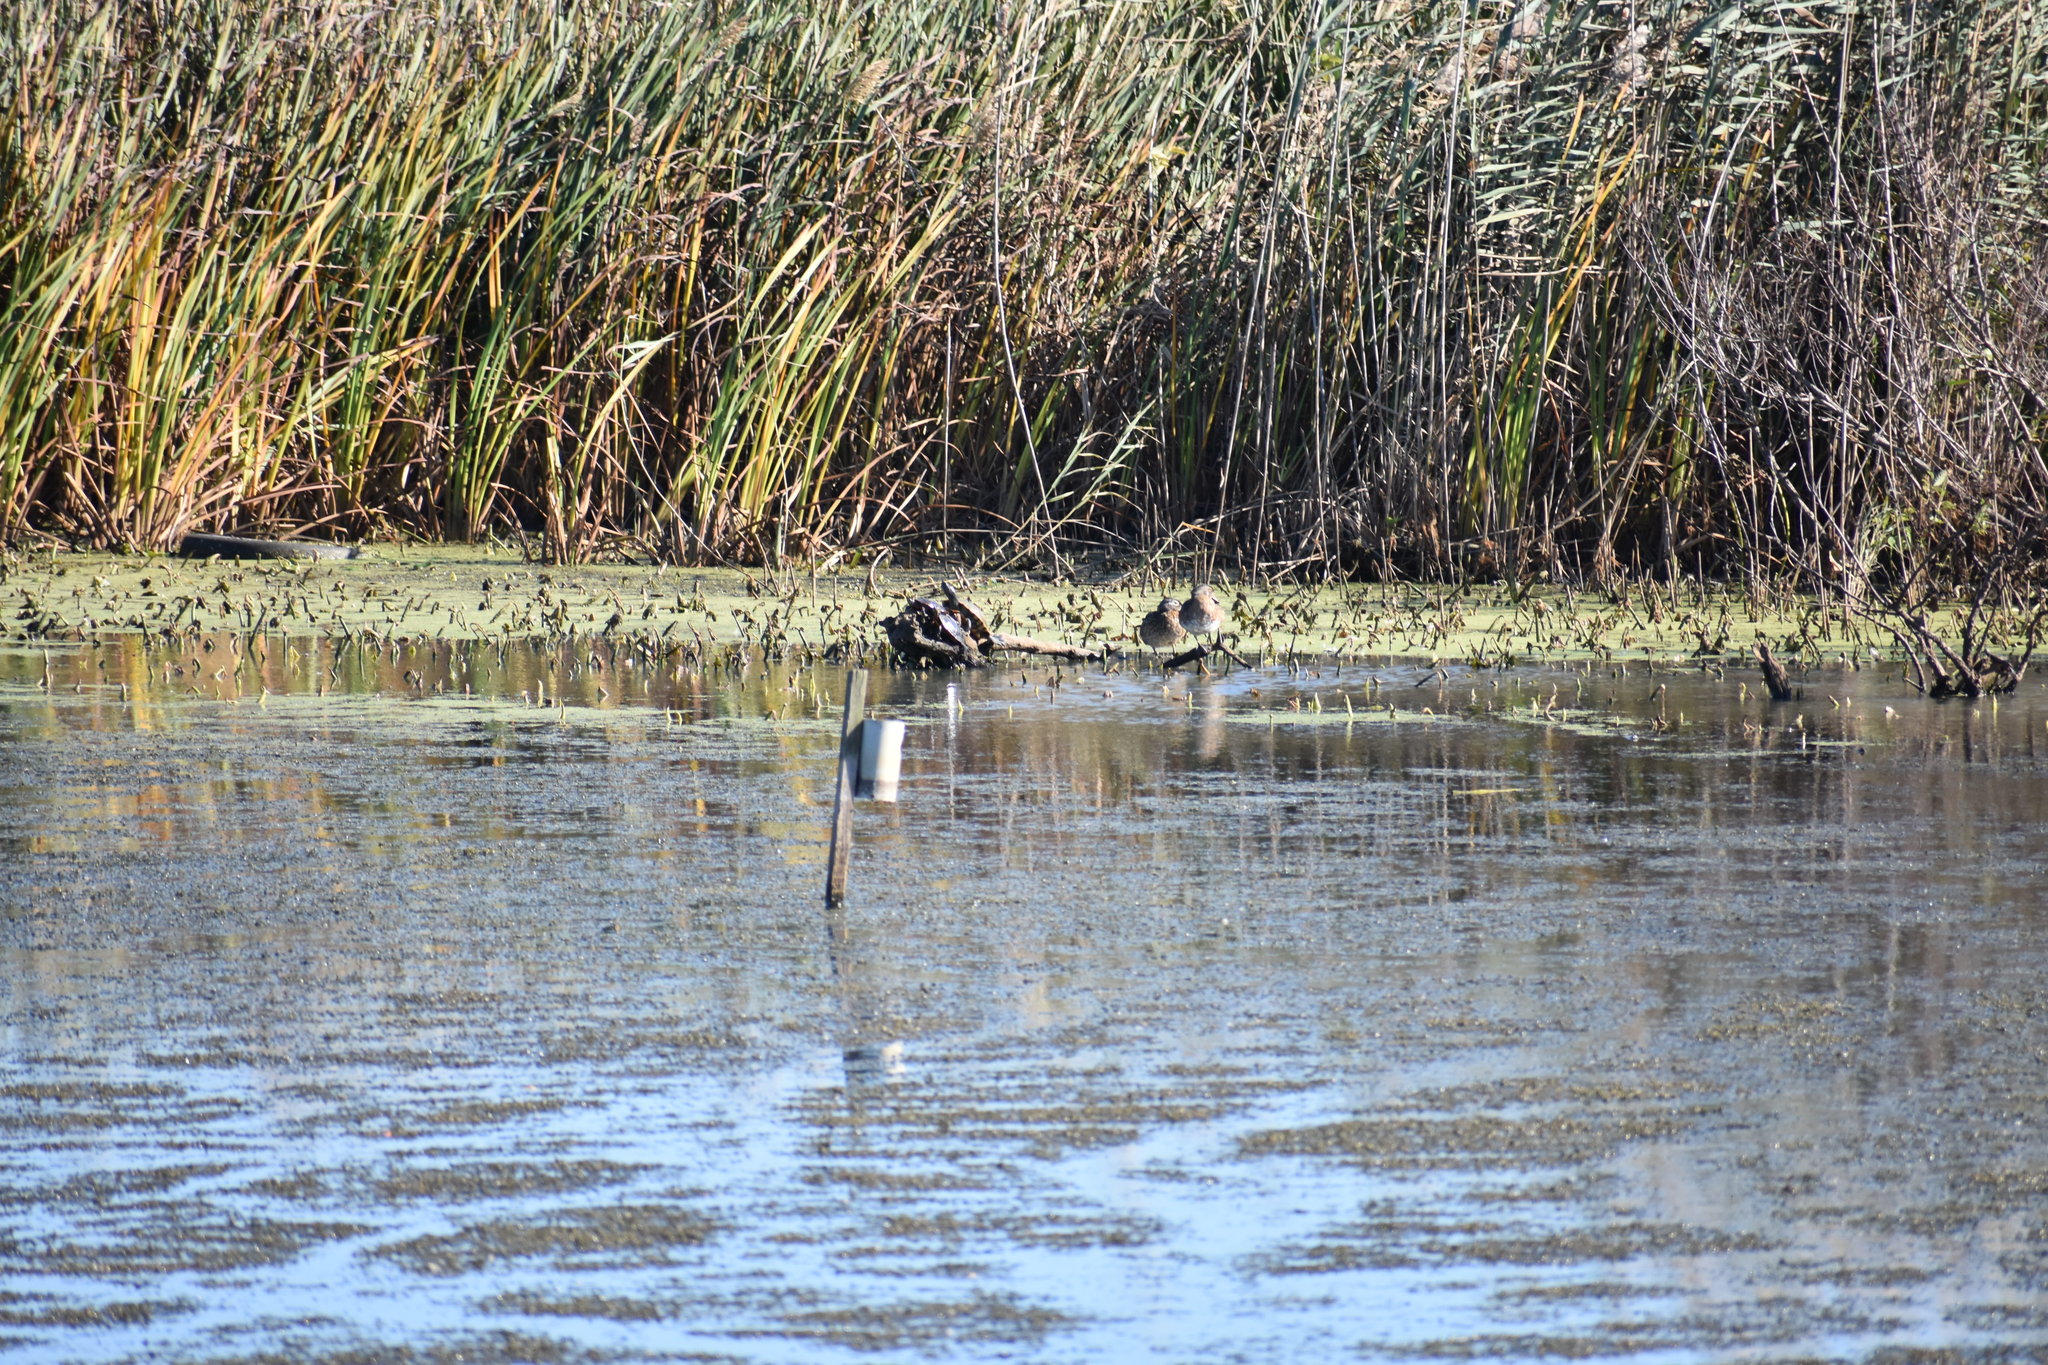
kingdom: Animalia
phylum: Chordata
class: Aves
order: Anseriformes
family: Anatidae
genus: Aix
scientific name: Aix sponsa
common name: Wood duck
